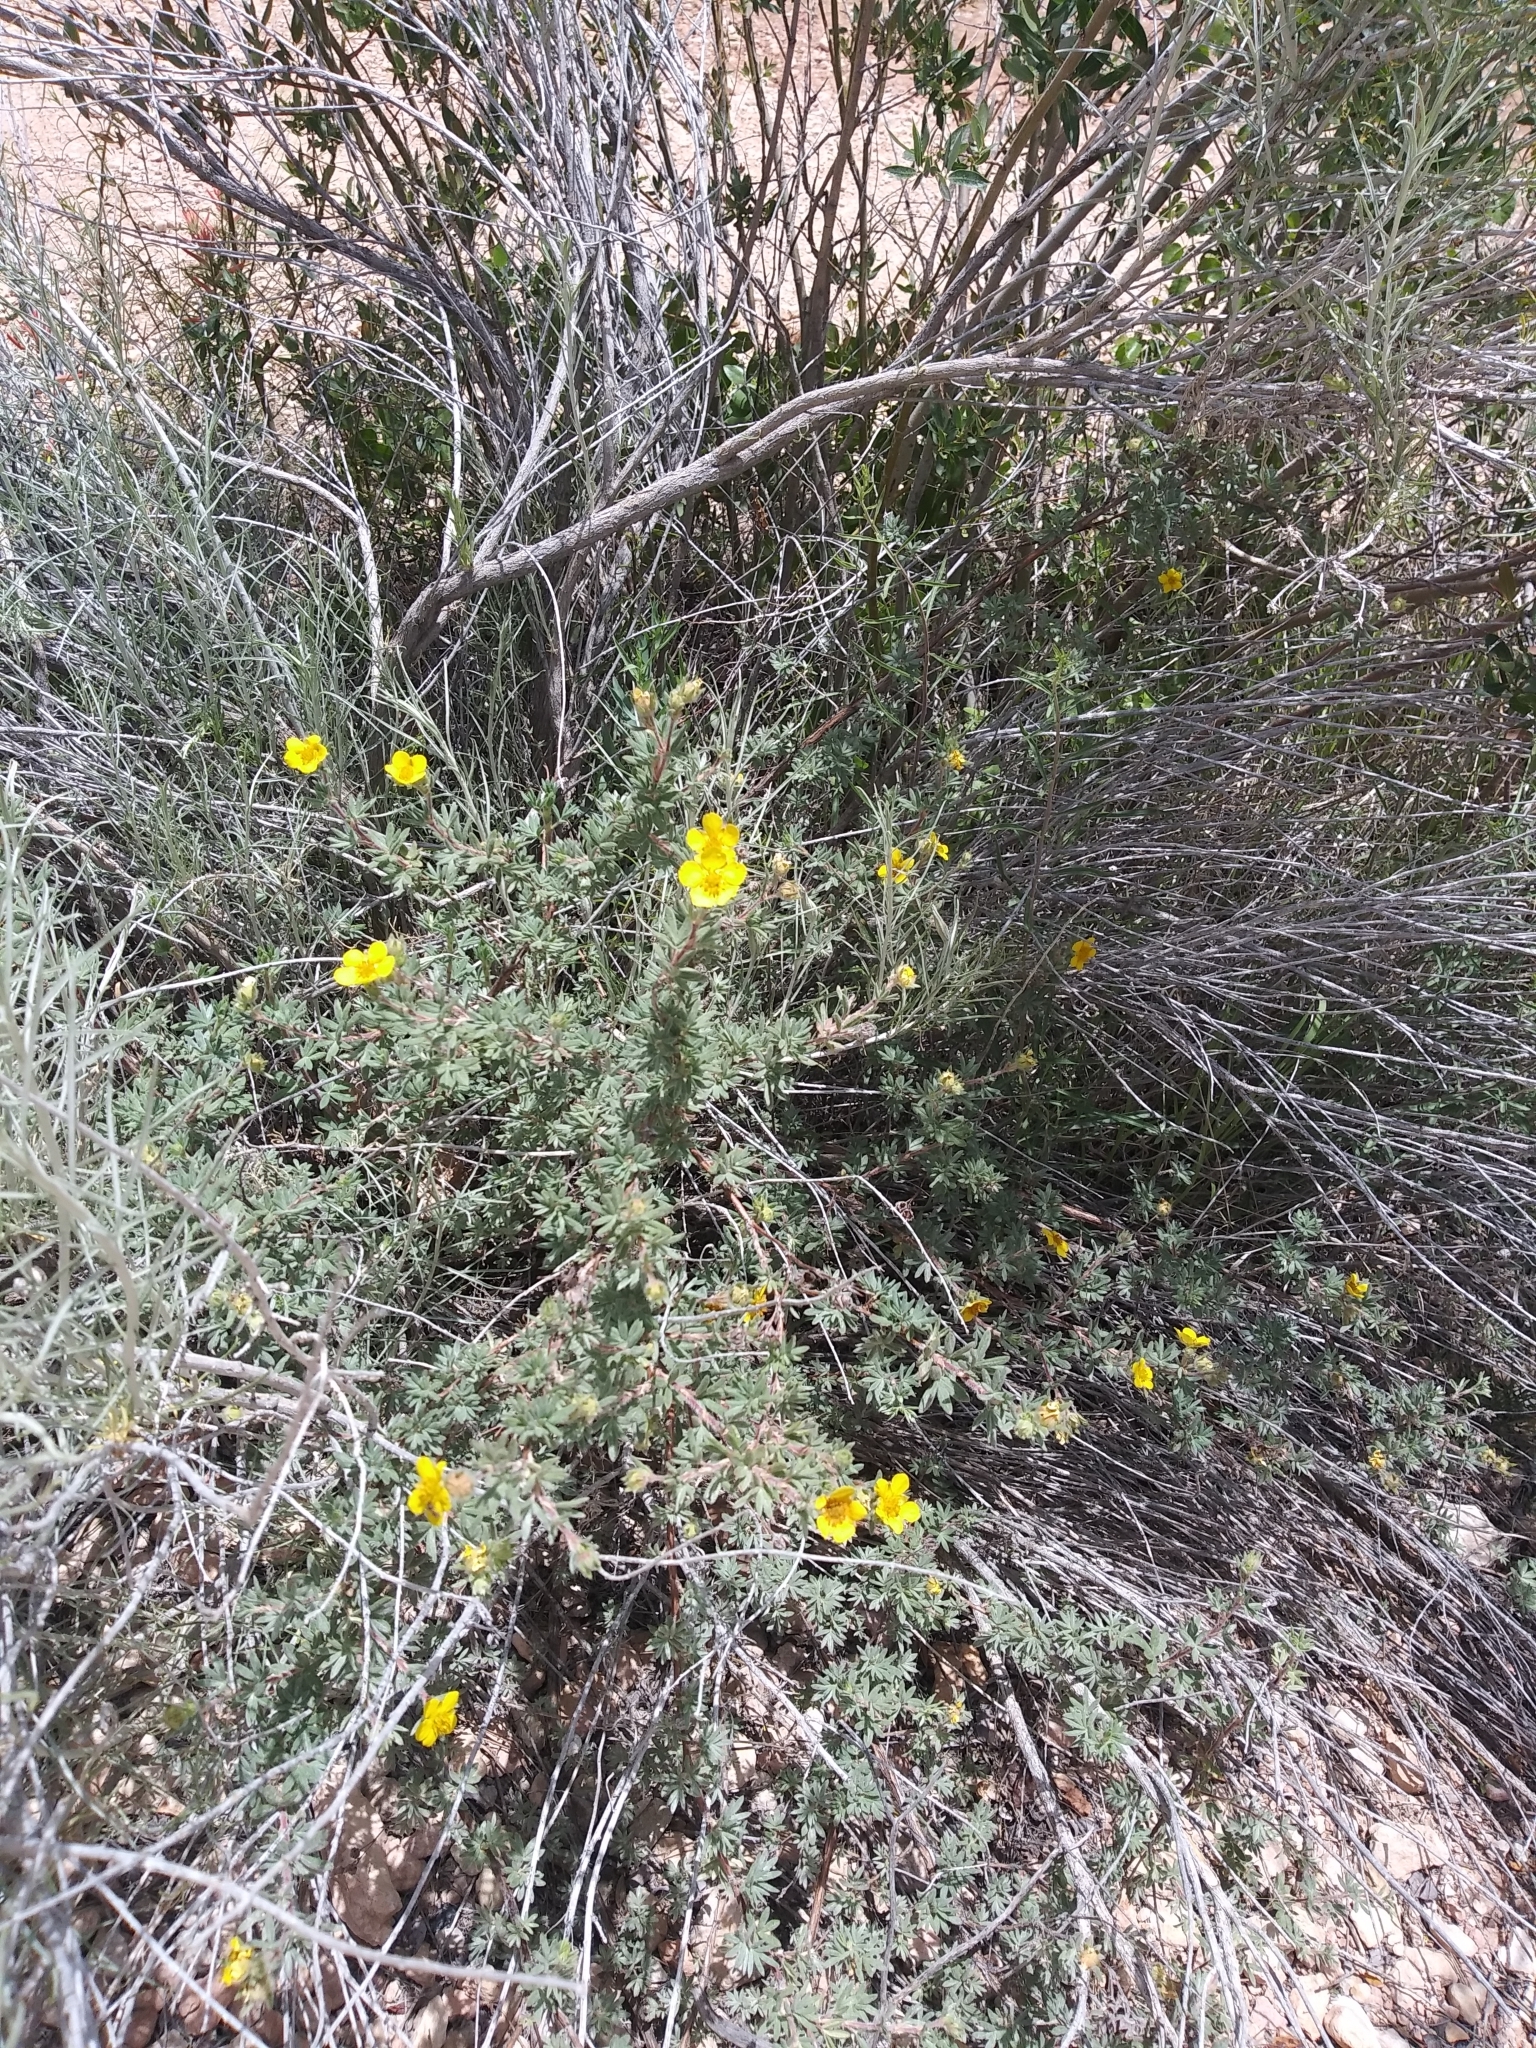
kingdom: Plantae
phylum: Tracheophyta
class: Magnoliopsida
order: Rosales
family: Rosaceae
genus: Dasiphora
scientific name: Dasiphora fruticosa
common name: Shrubby cinquefoil
